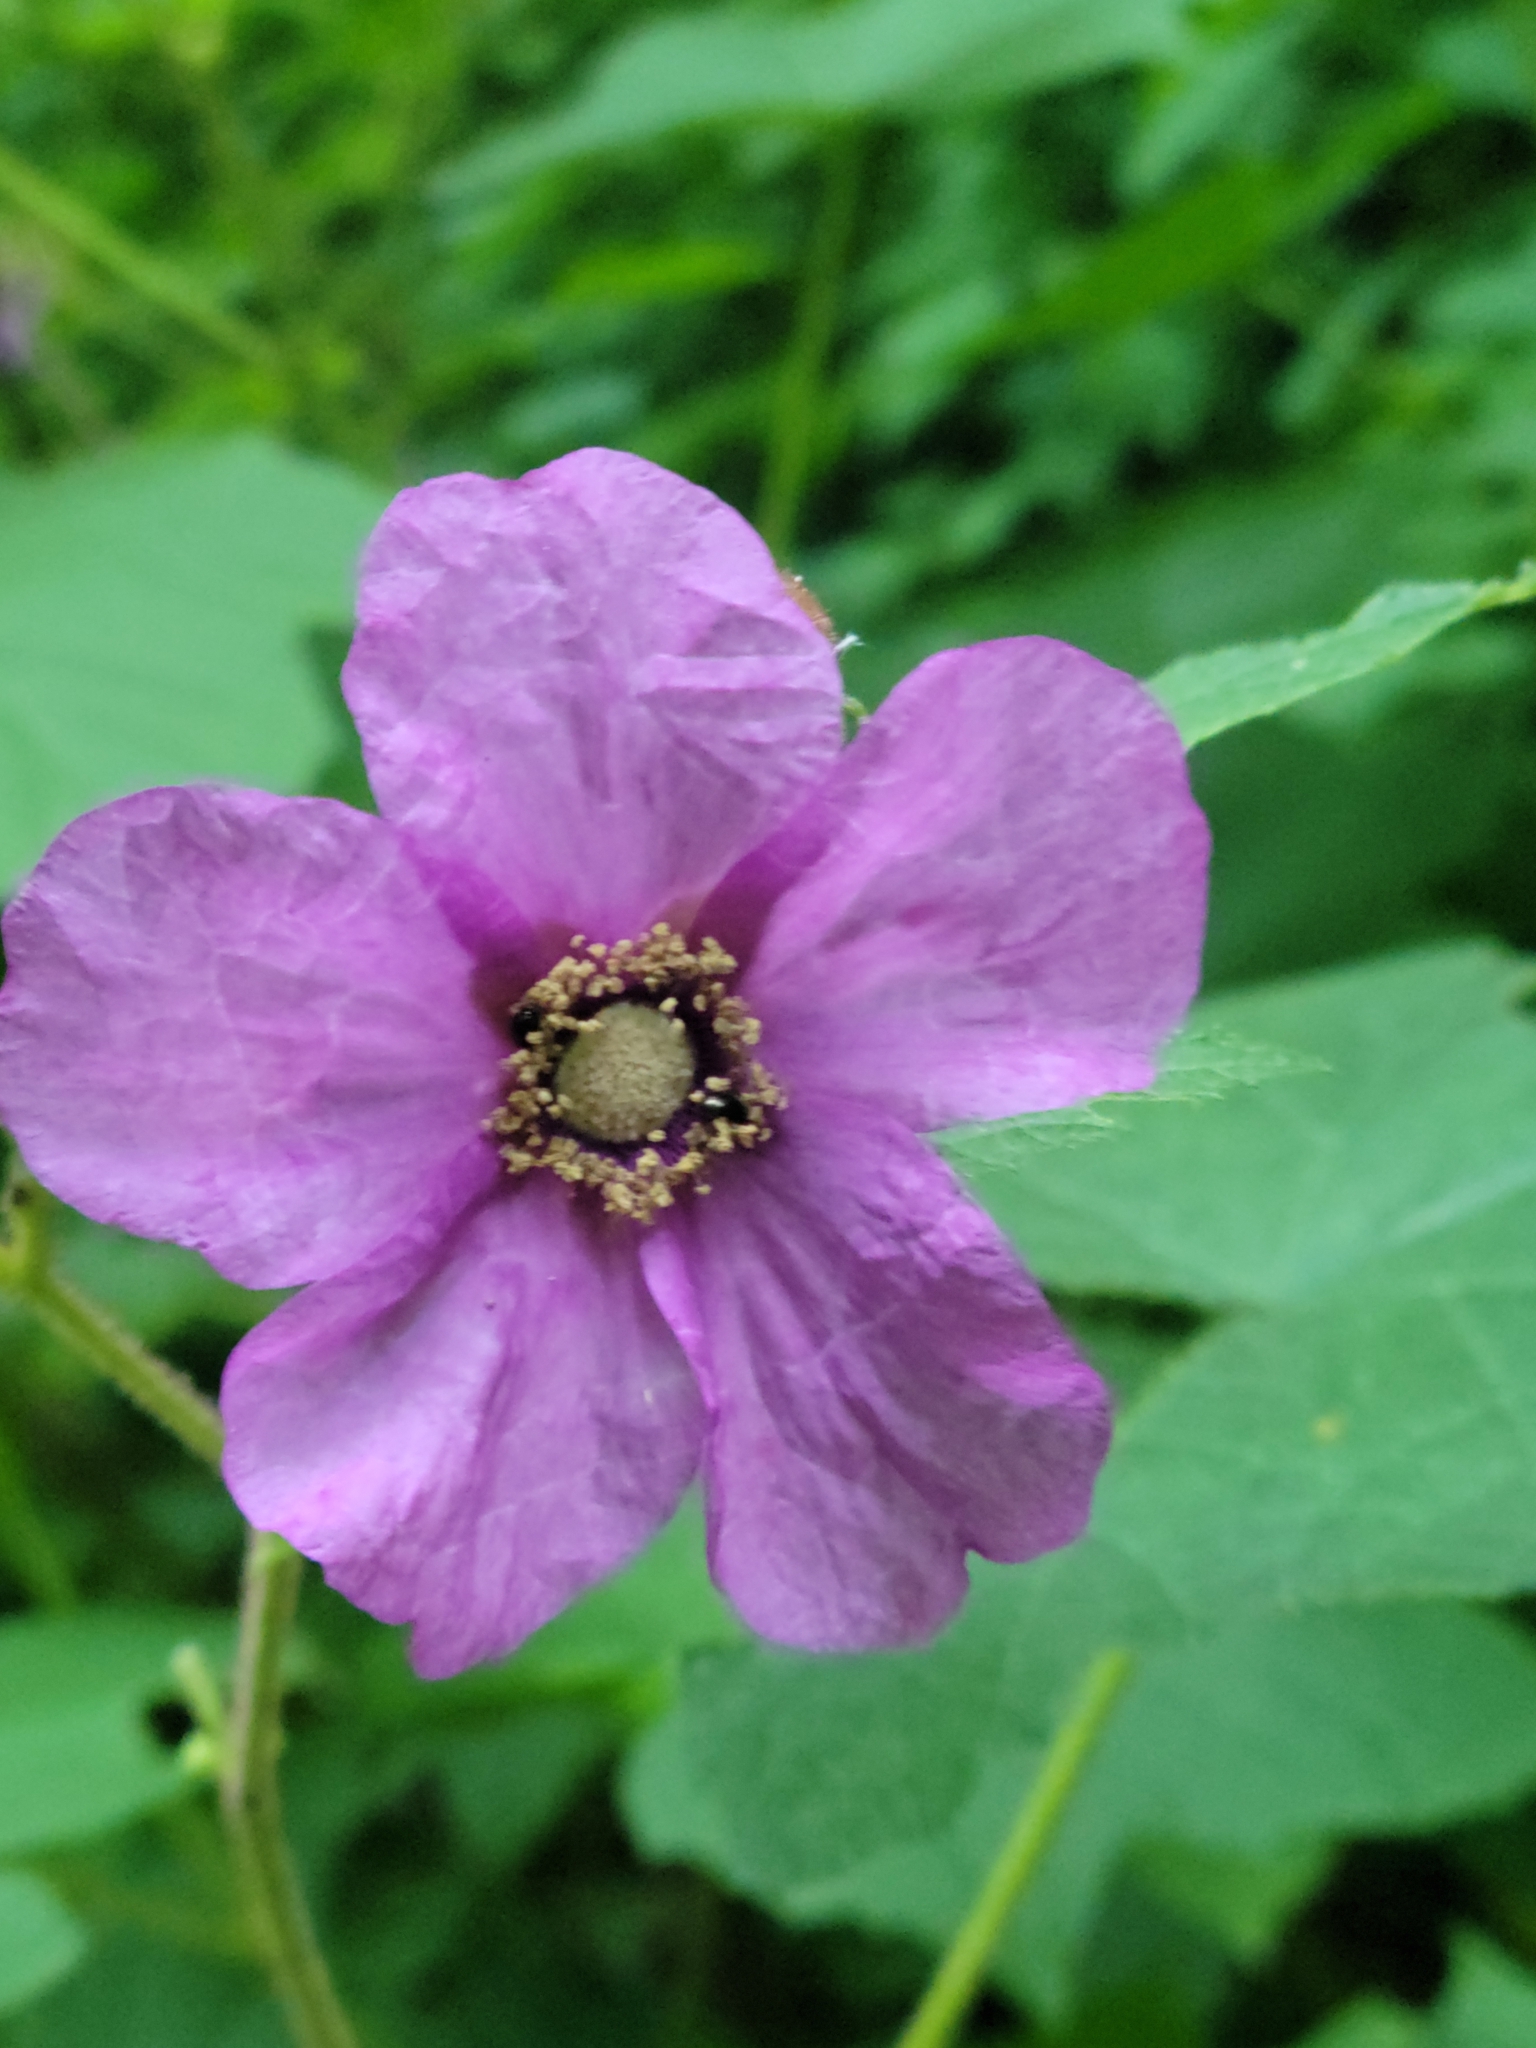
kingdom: Plantae
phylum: Tracheophyta
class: Magnoliopsida
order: Rosales
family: Rosaceae
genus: Rubus
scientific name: Rubus odoratus
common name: Purple-flowered raspberry
